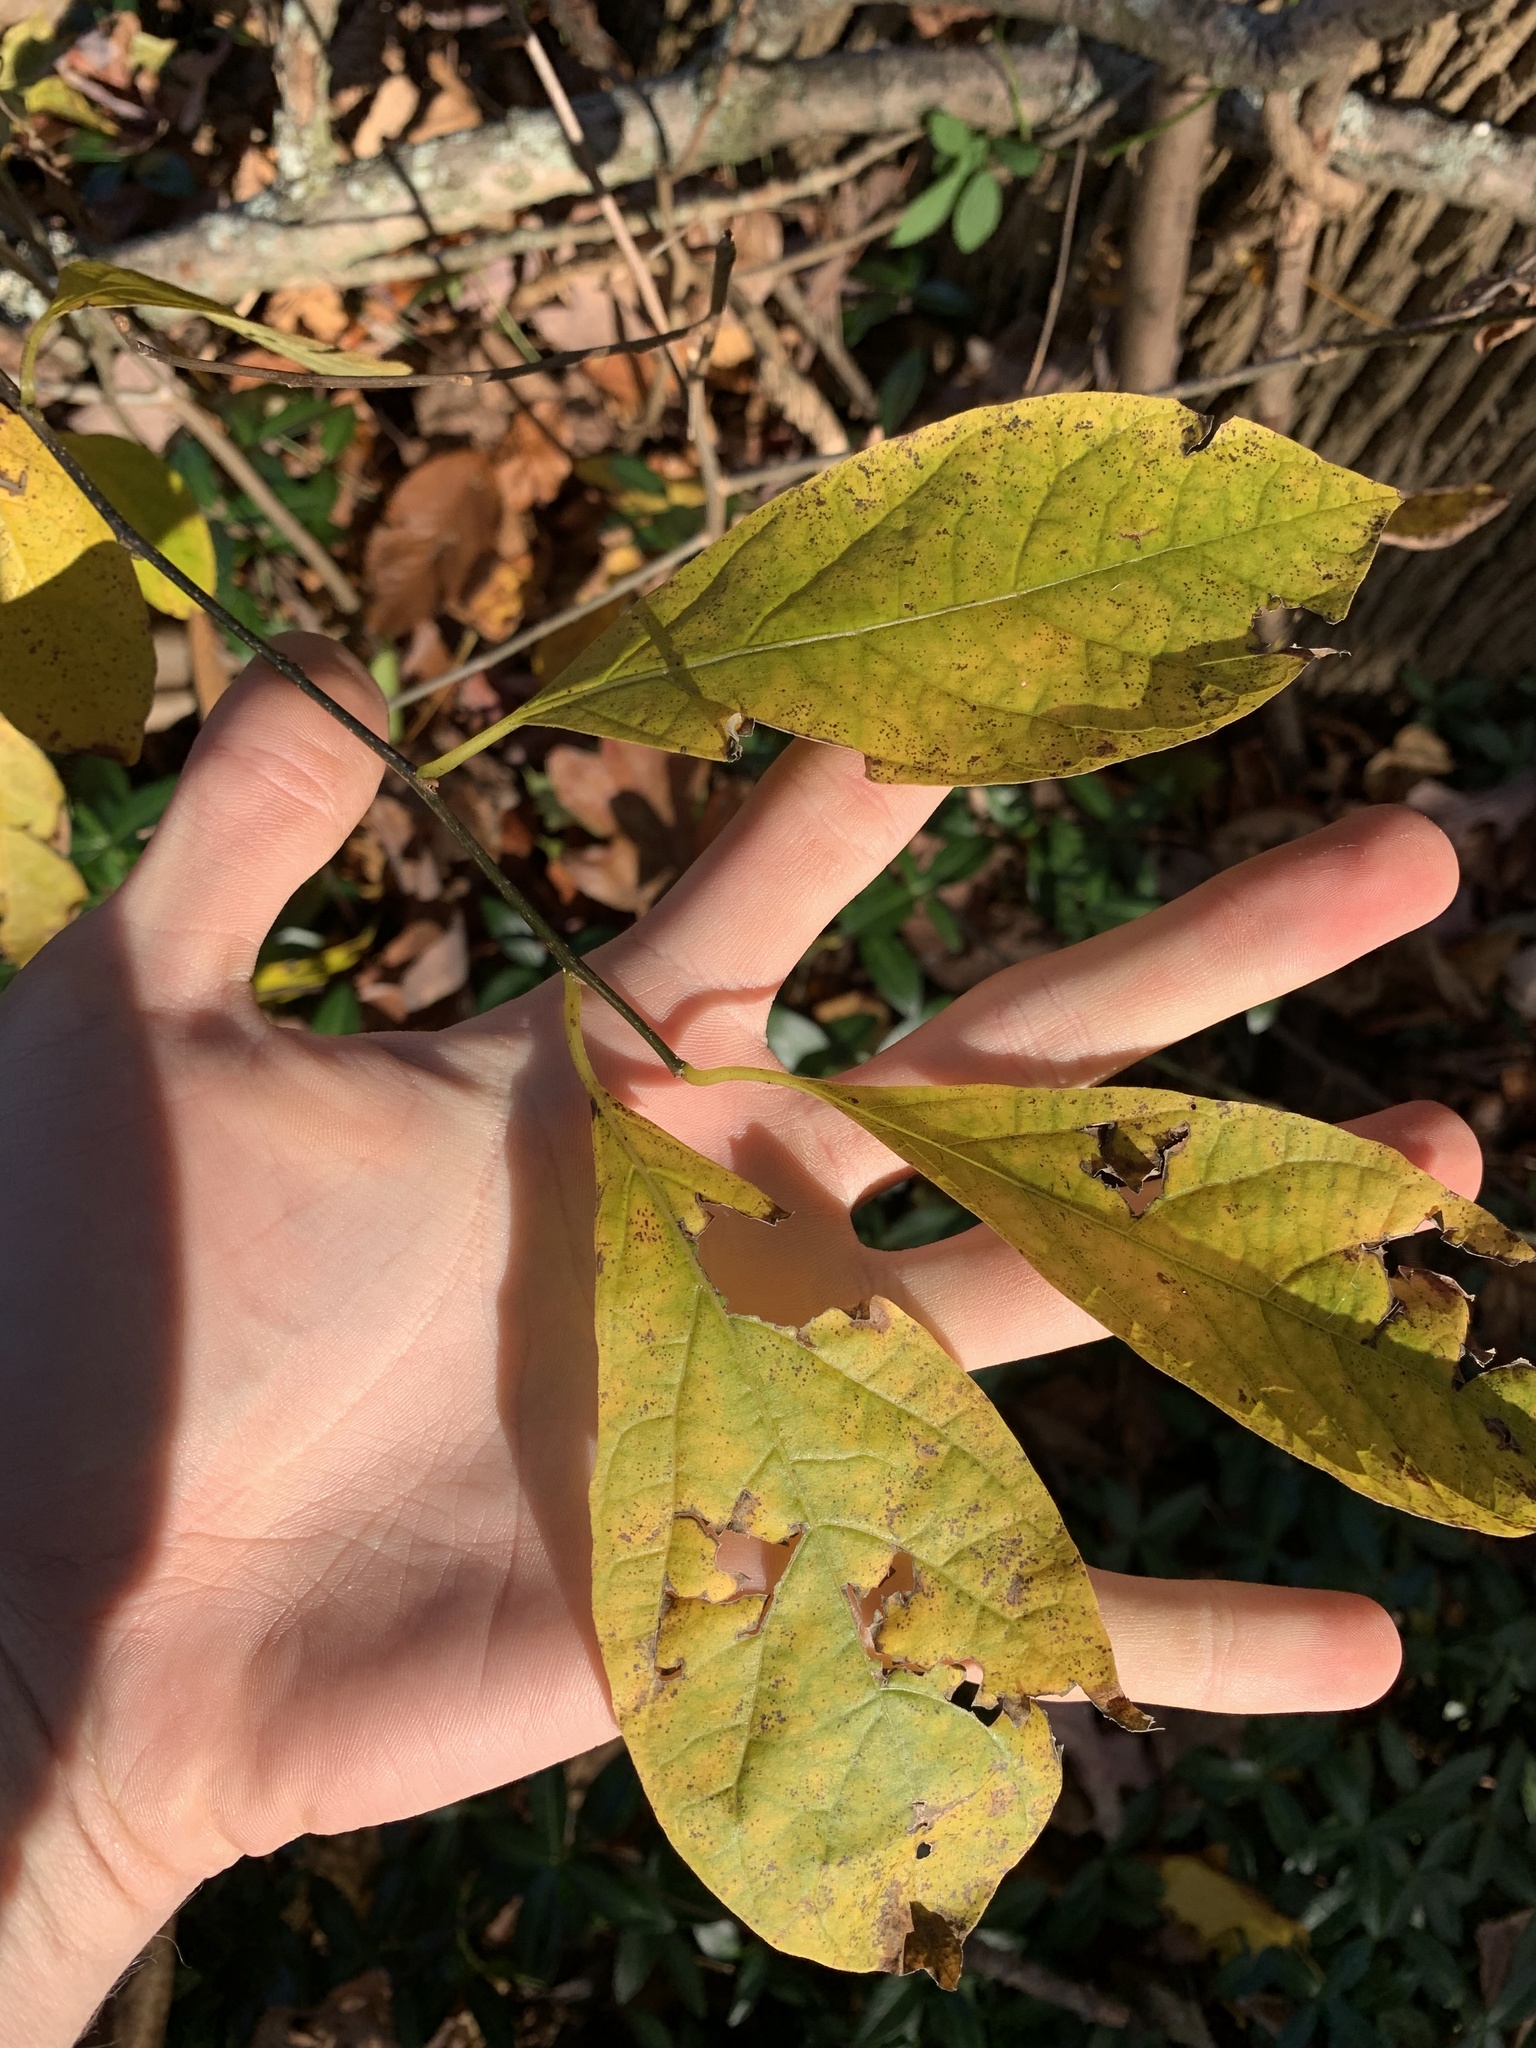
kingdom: Plantae
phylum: Tracheophyta
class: Magnoliopsida
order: Laurales
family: Lauraceae
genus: Lindera
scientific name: Lindera benzoin
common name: Spicebush
